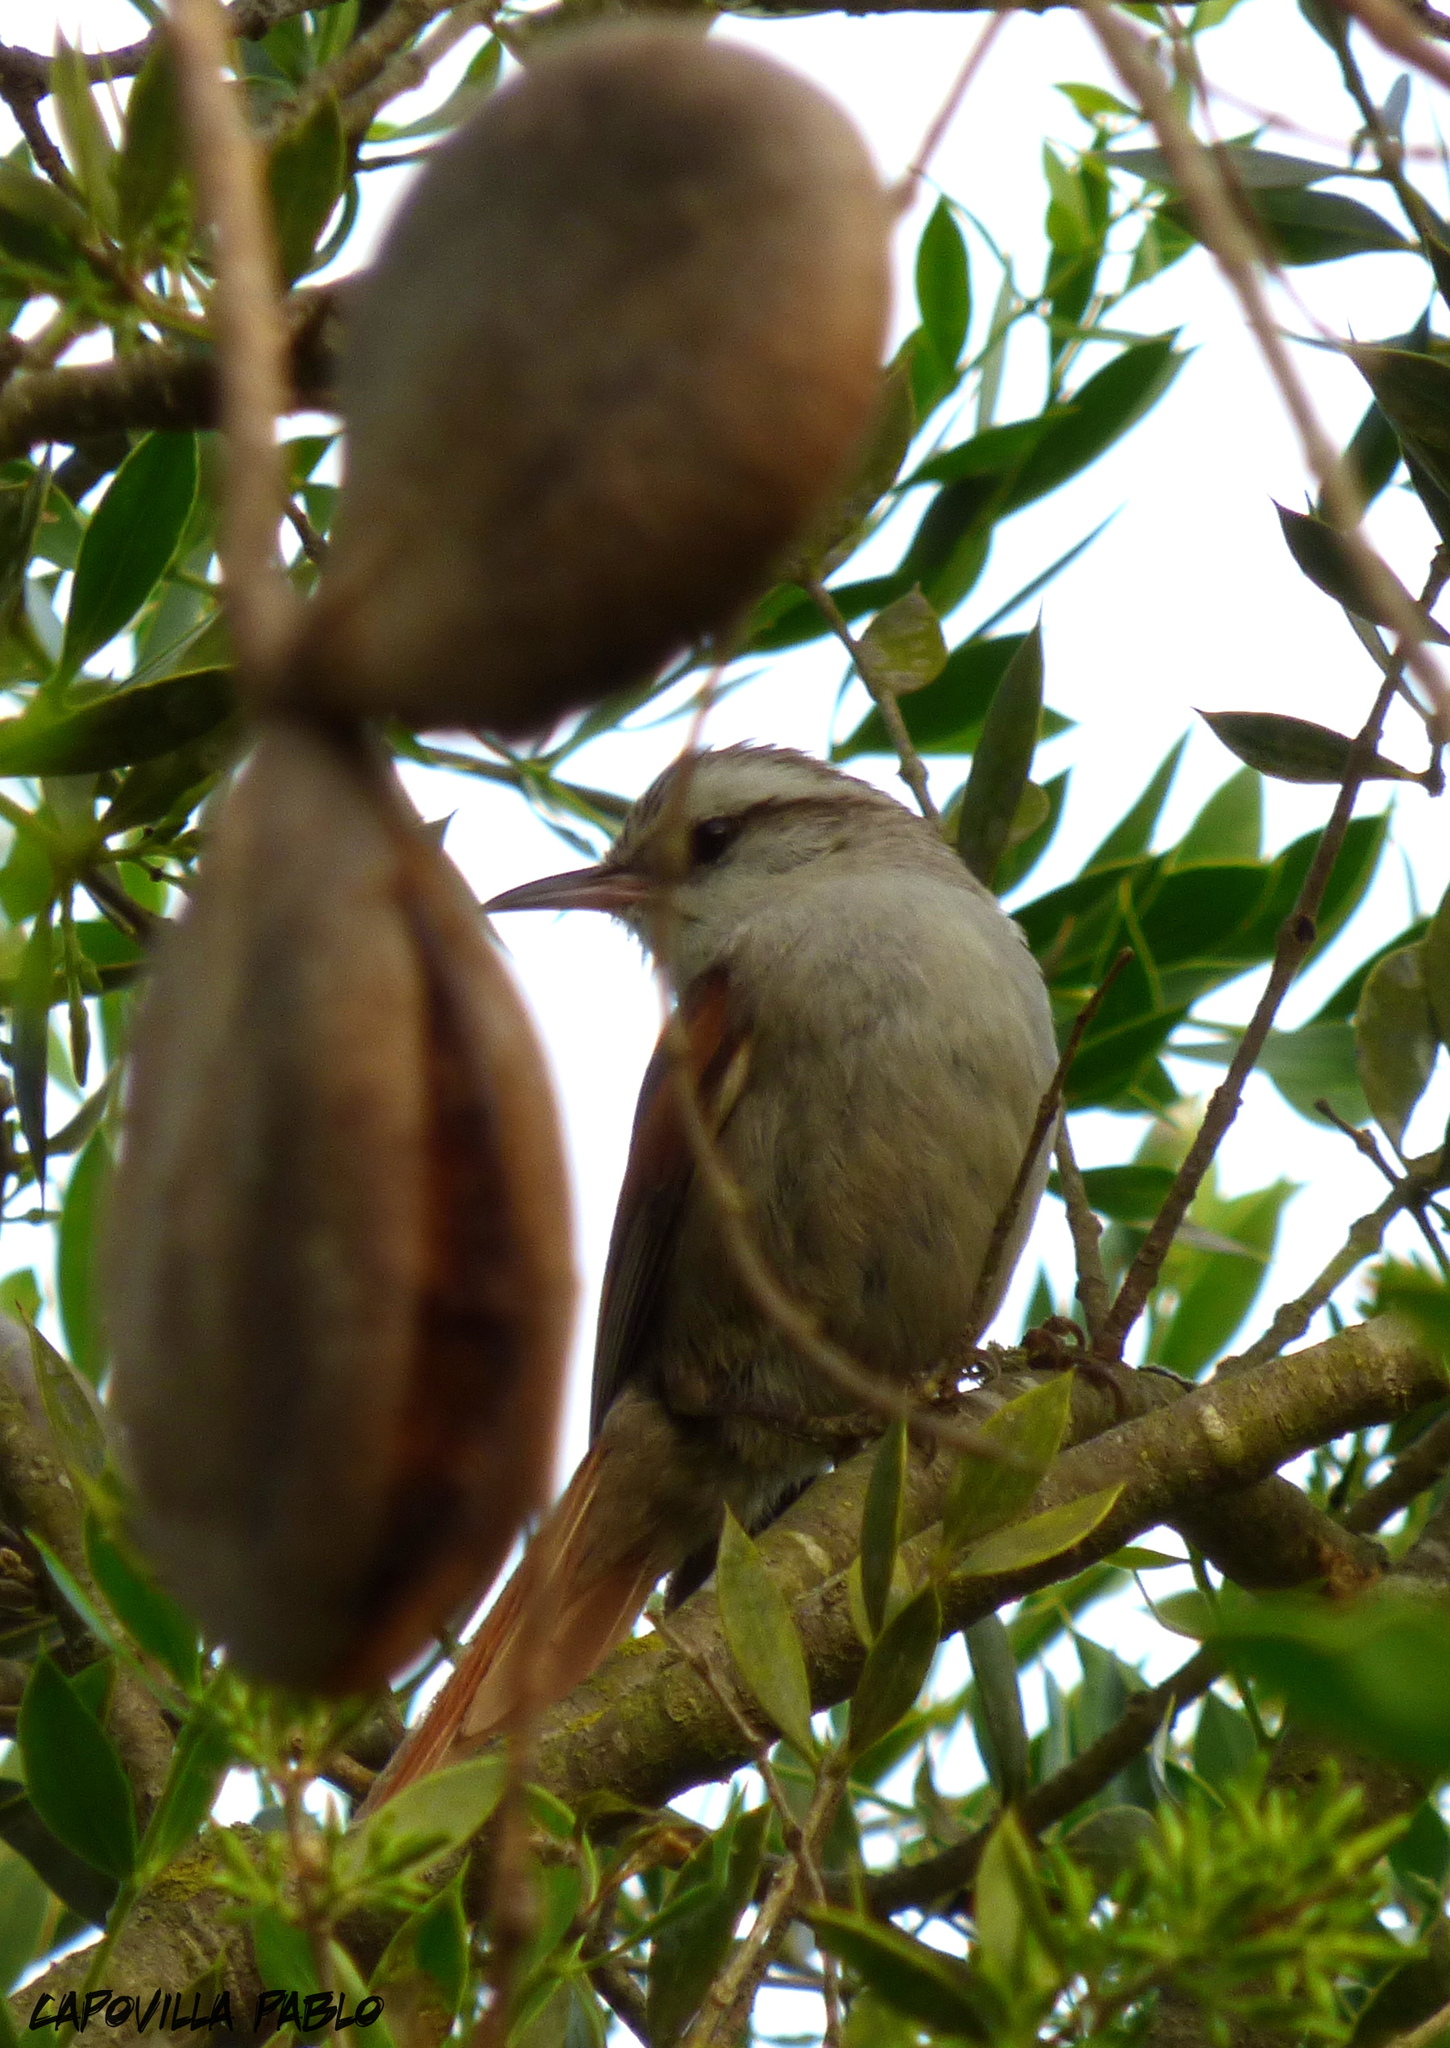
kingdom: Animalia
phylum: Chordata
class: Aves
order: Passeriformes
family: Furnariidae
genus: Cranioleuca
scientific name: Cranioleuca pyrrhophia
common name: Stripe-crowned spinetail
